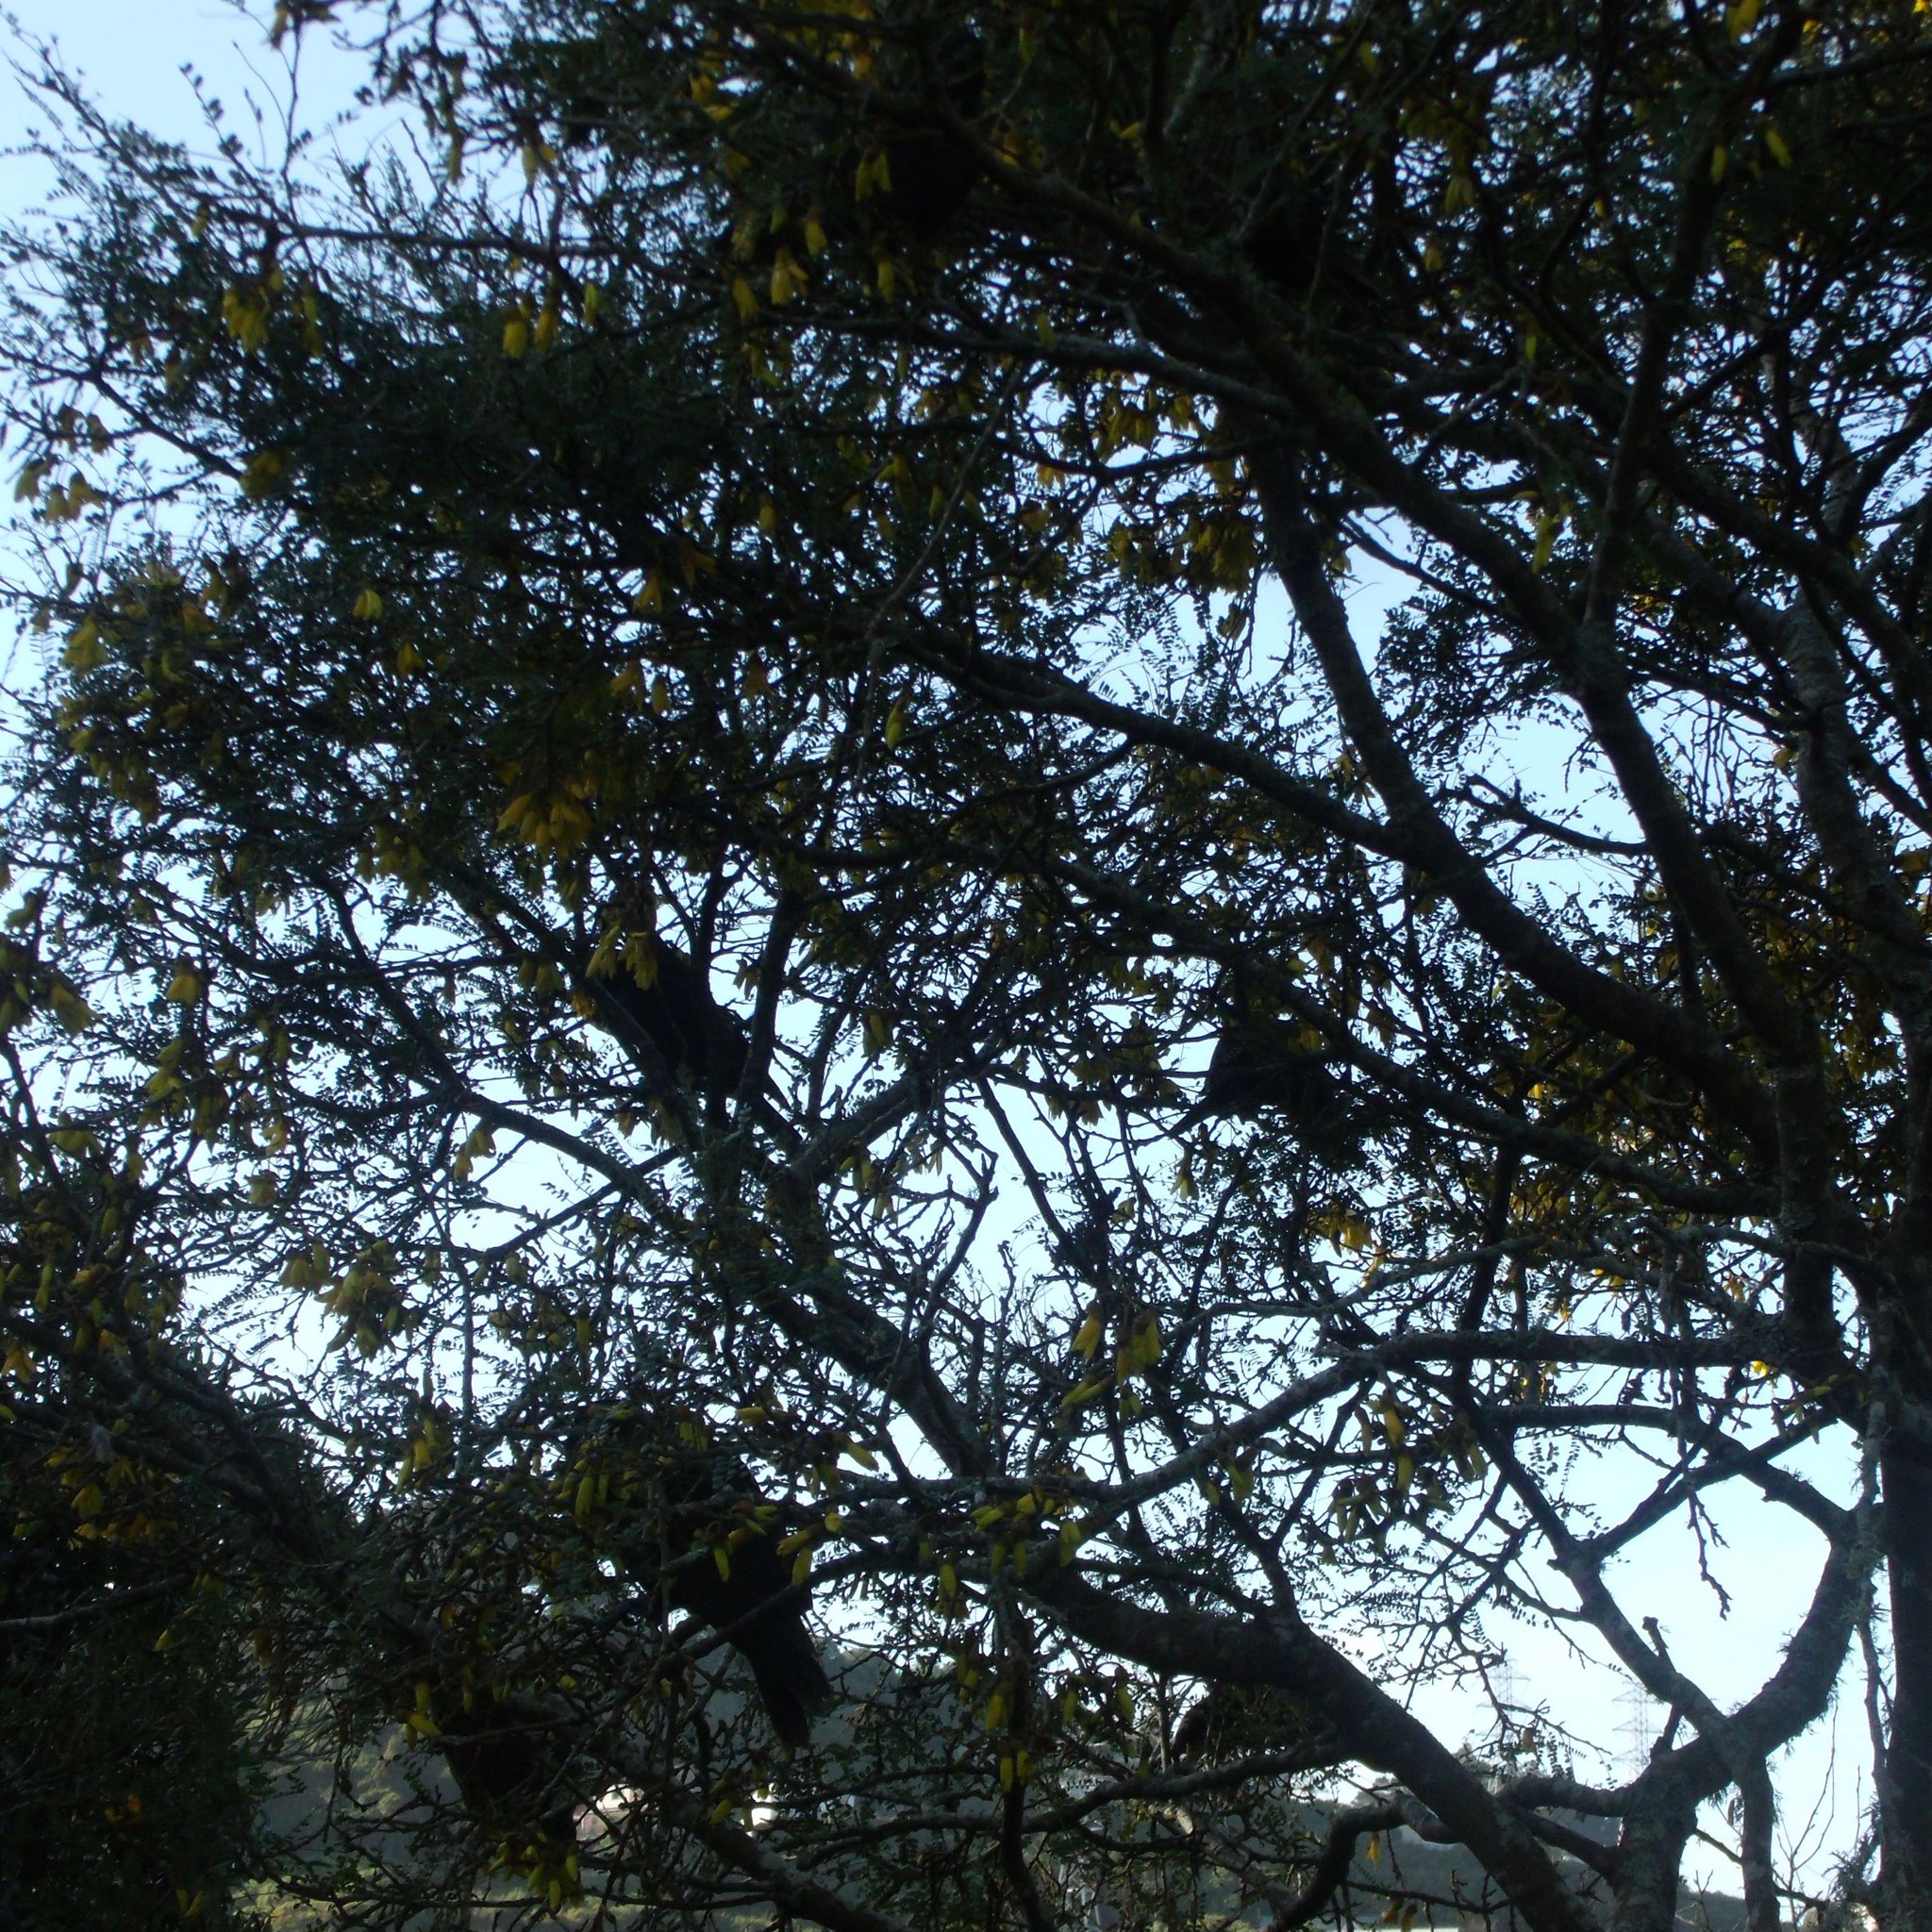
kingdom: Animalia
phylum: Chordata
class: Aves
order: Psittaciformes
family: Psittacidae
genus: Nestor
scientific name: Nestor meridionalis
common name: New zealand kaka
